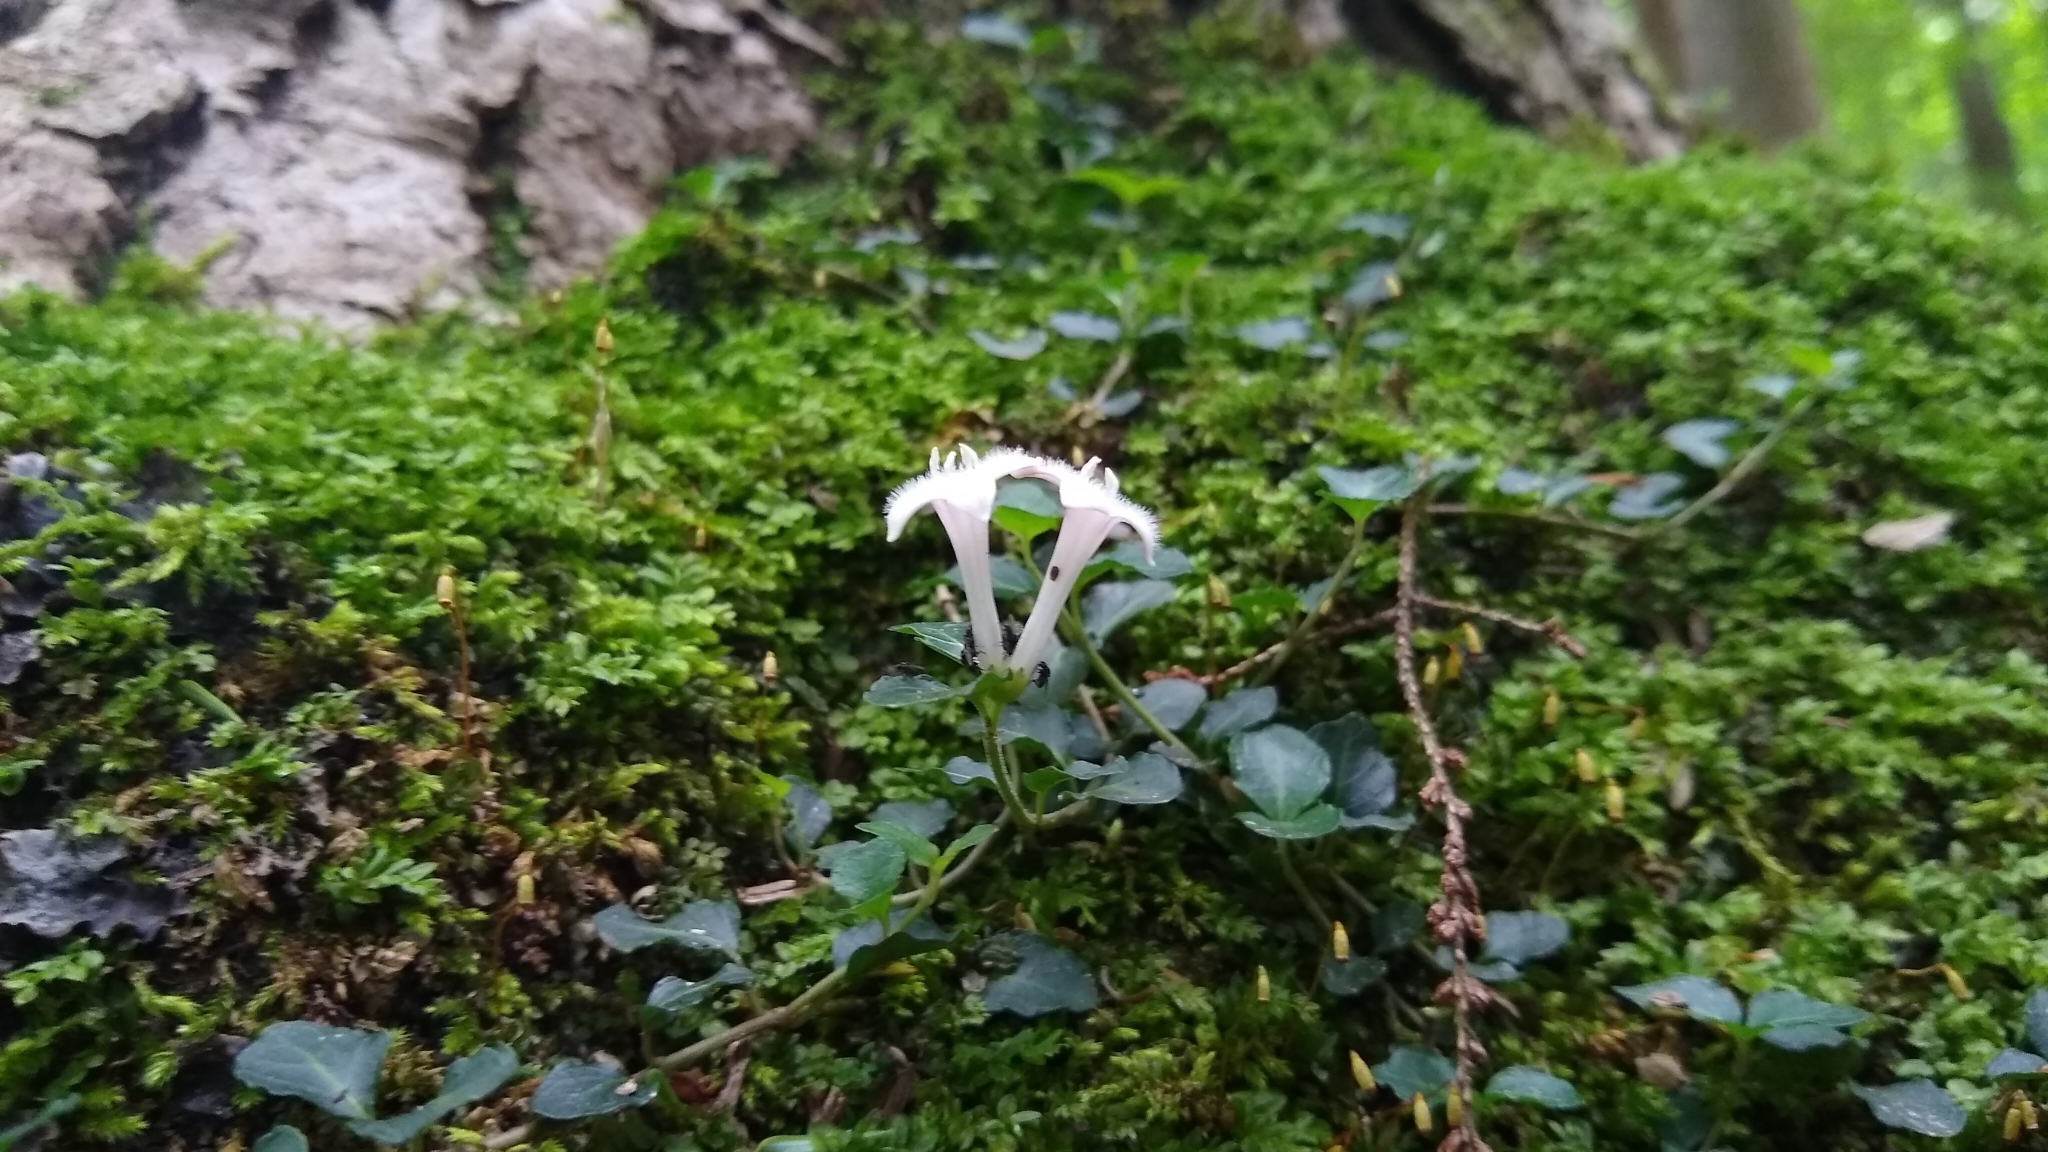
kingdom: Plantae
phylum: Tracheophyta
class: Magnoliopsida
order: Gentianales
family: Rubiaceae
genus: Mitchella
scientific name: Mitchella repens
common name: Partridge-berry
